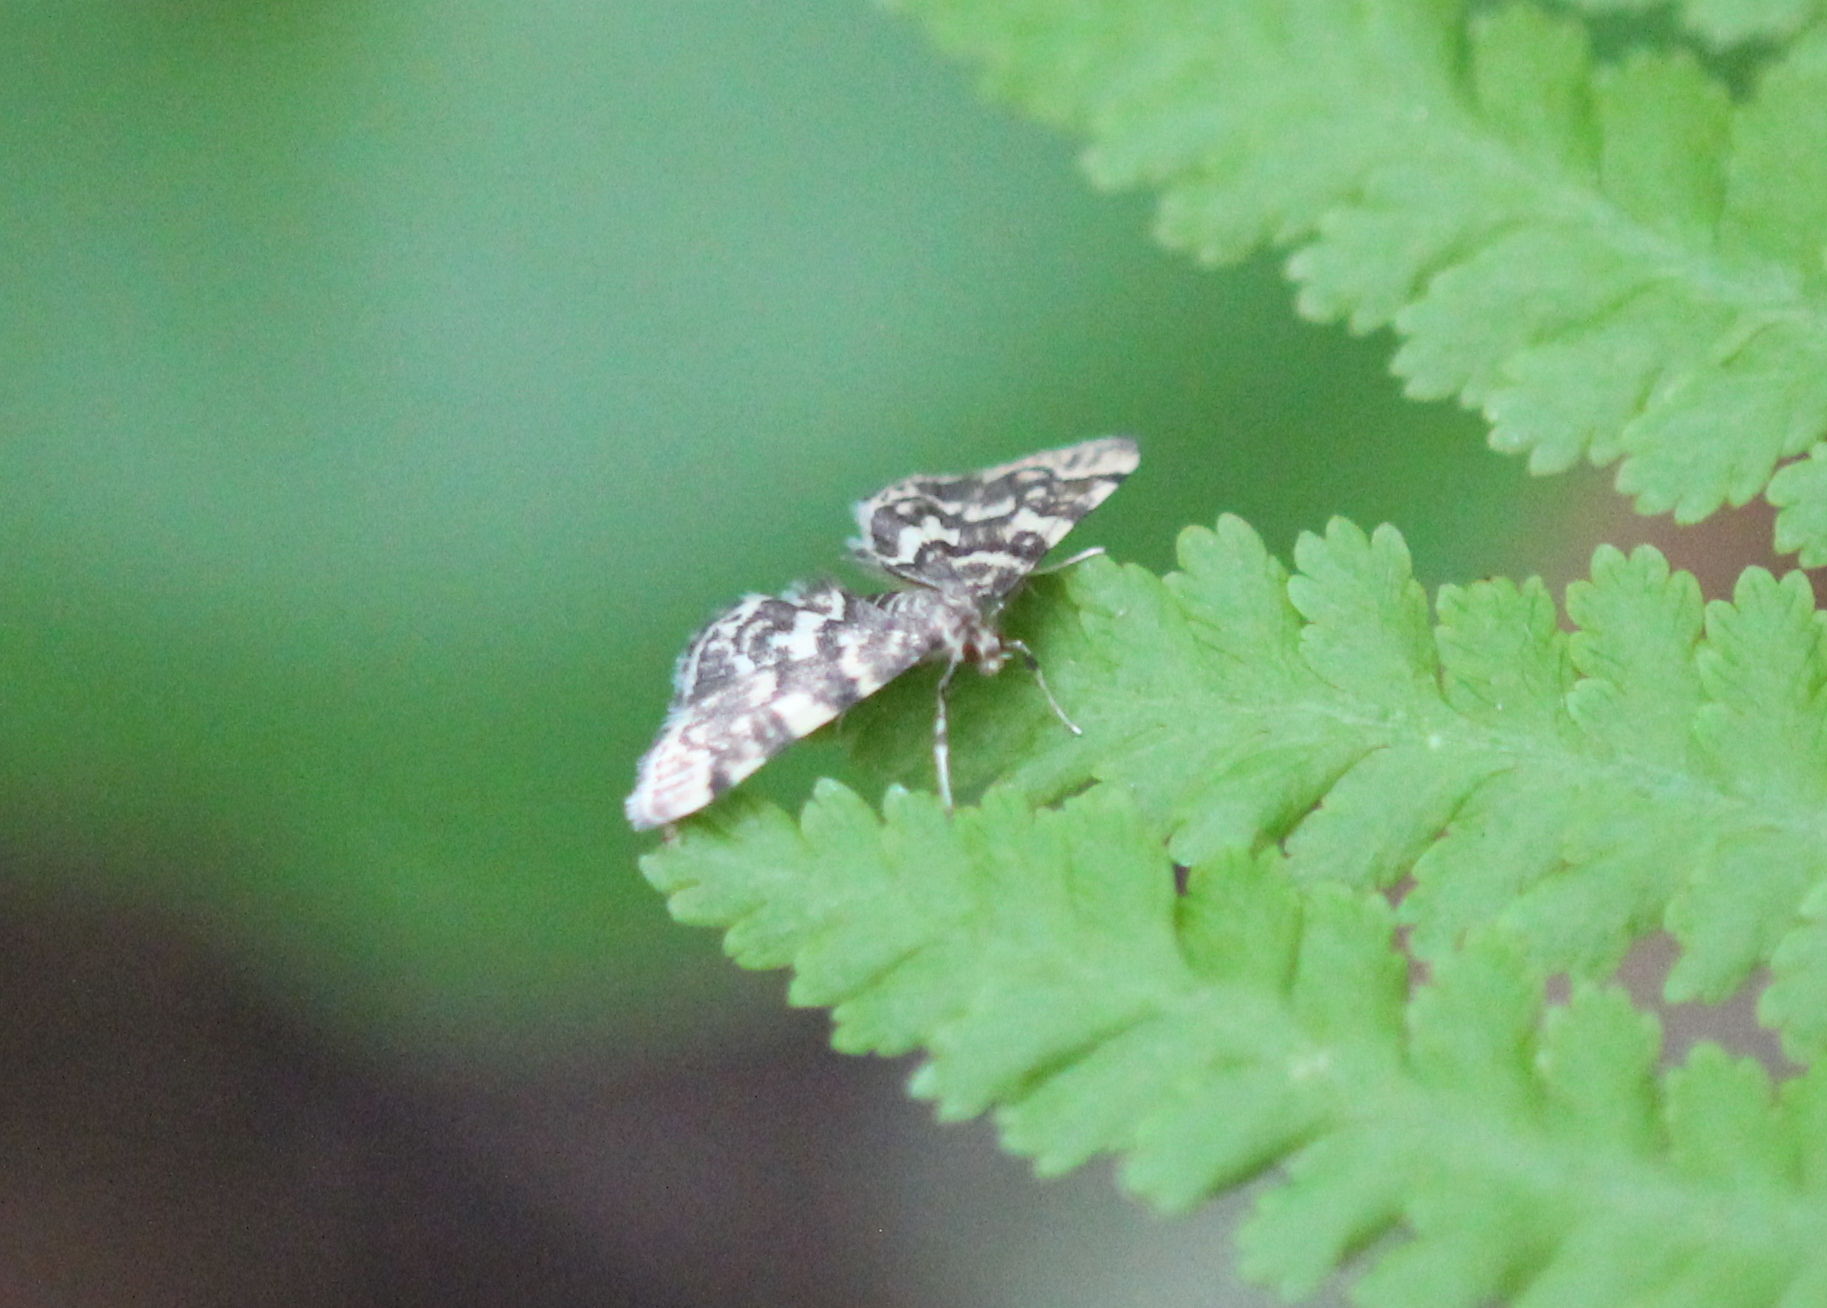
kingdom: Animalia
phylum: Arthropoda
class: Insecta
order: Lepidoptera
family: Crambidae
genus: Anageshna
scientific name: Anageshna primordialis
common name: Yellow-spotted webworm moth
